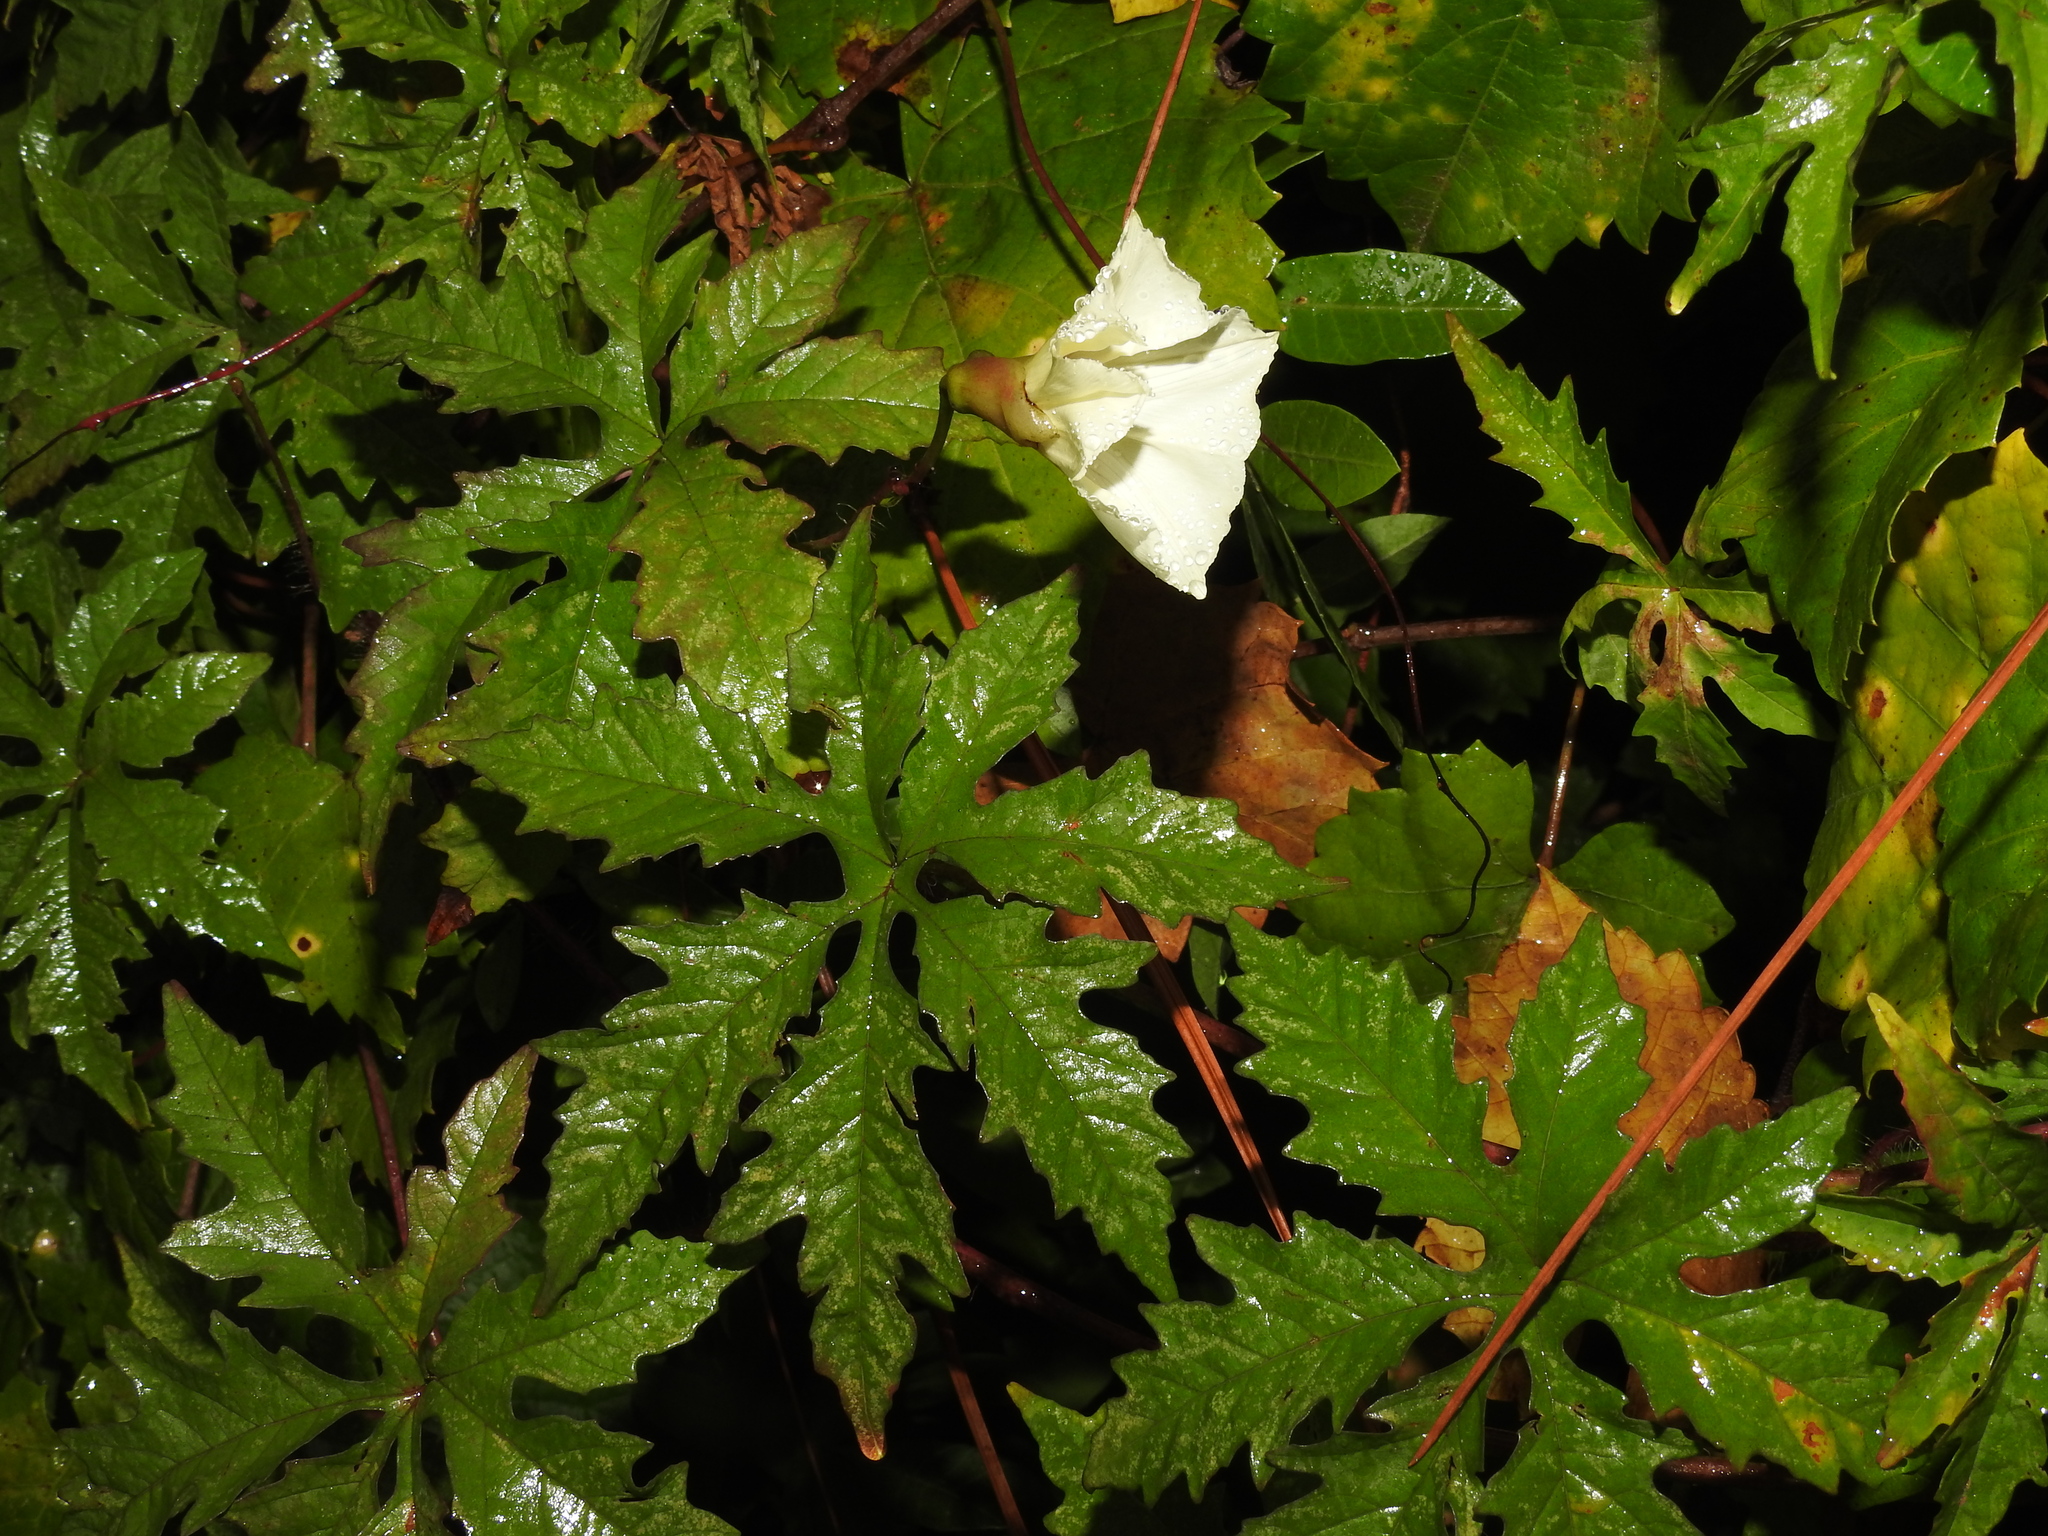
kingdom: Plantae
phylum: Tracheophyta
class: Magnoliopsida
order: Solanales
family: Convolvulaceae
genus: Distimake
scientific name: Distimake dissectus
